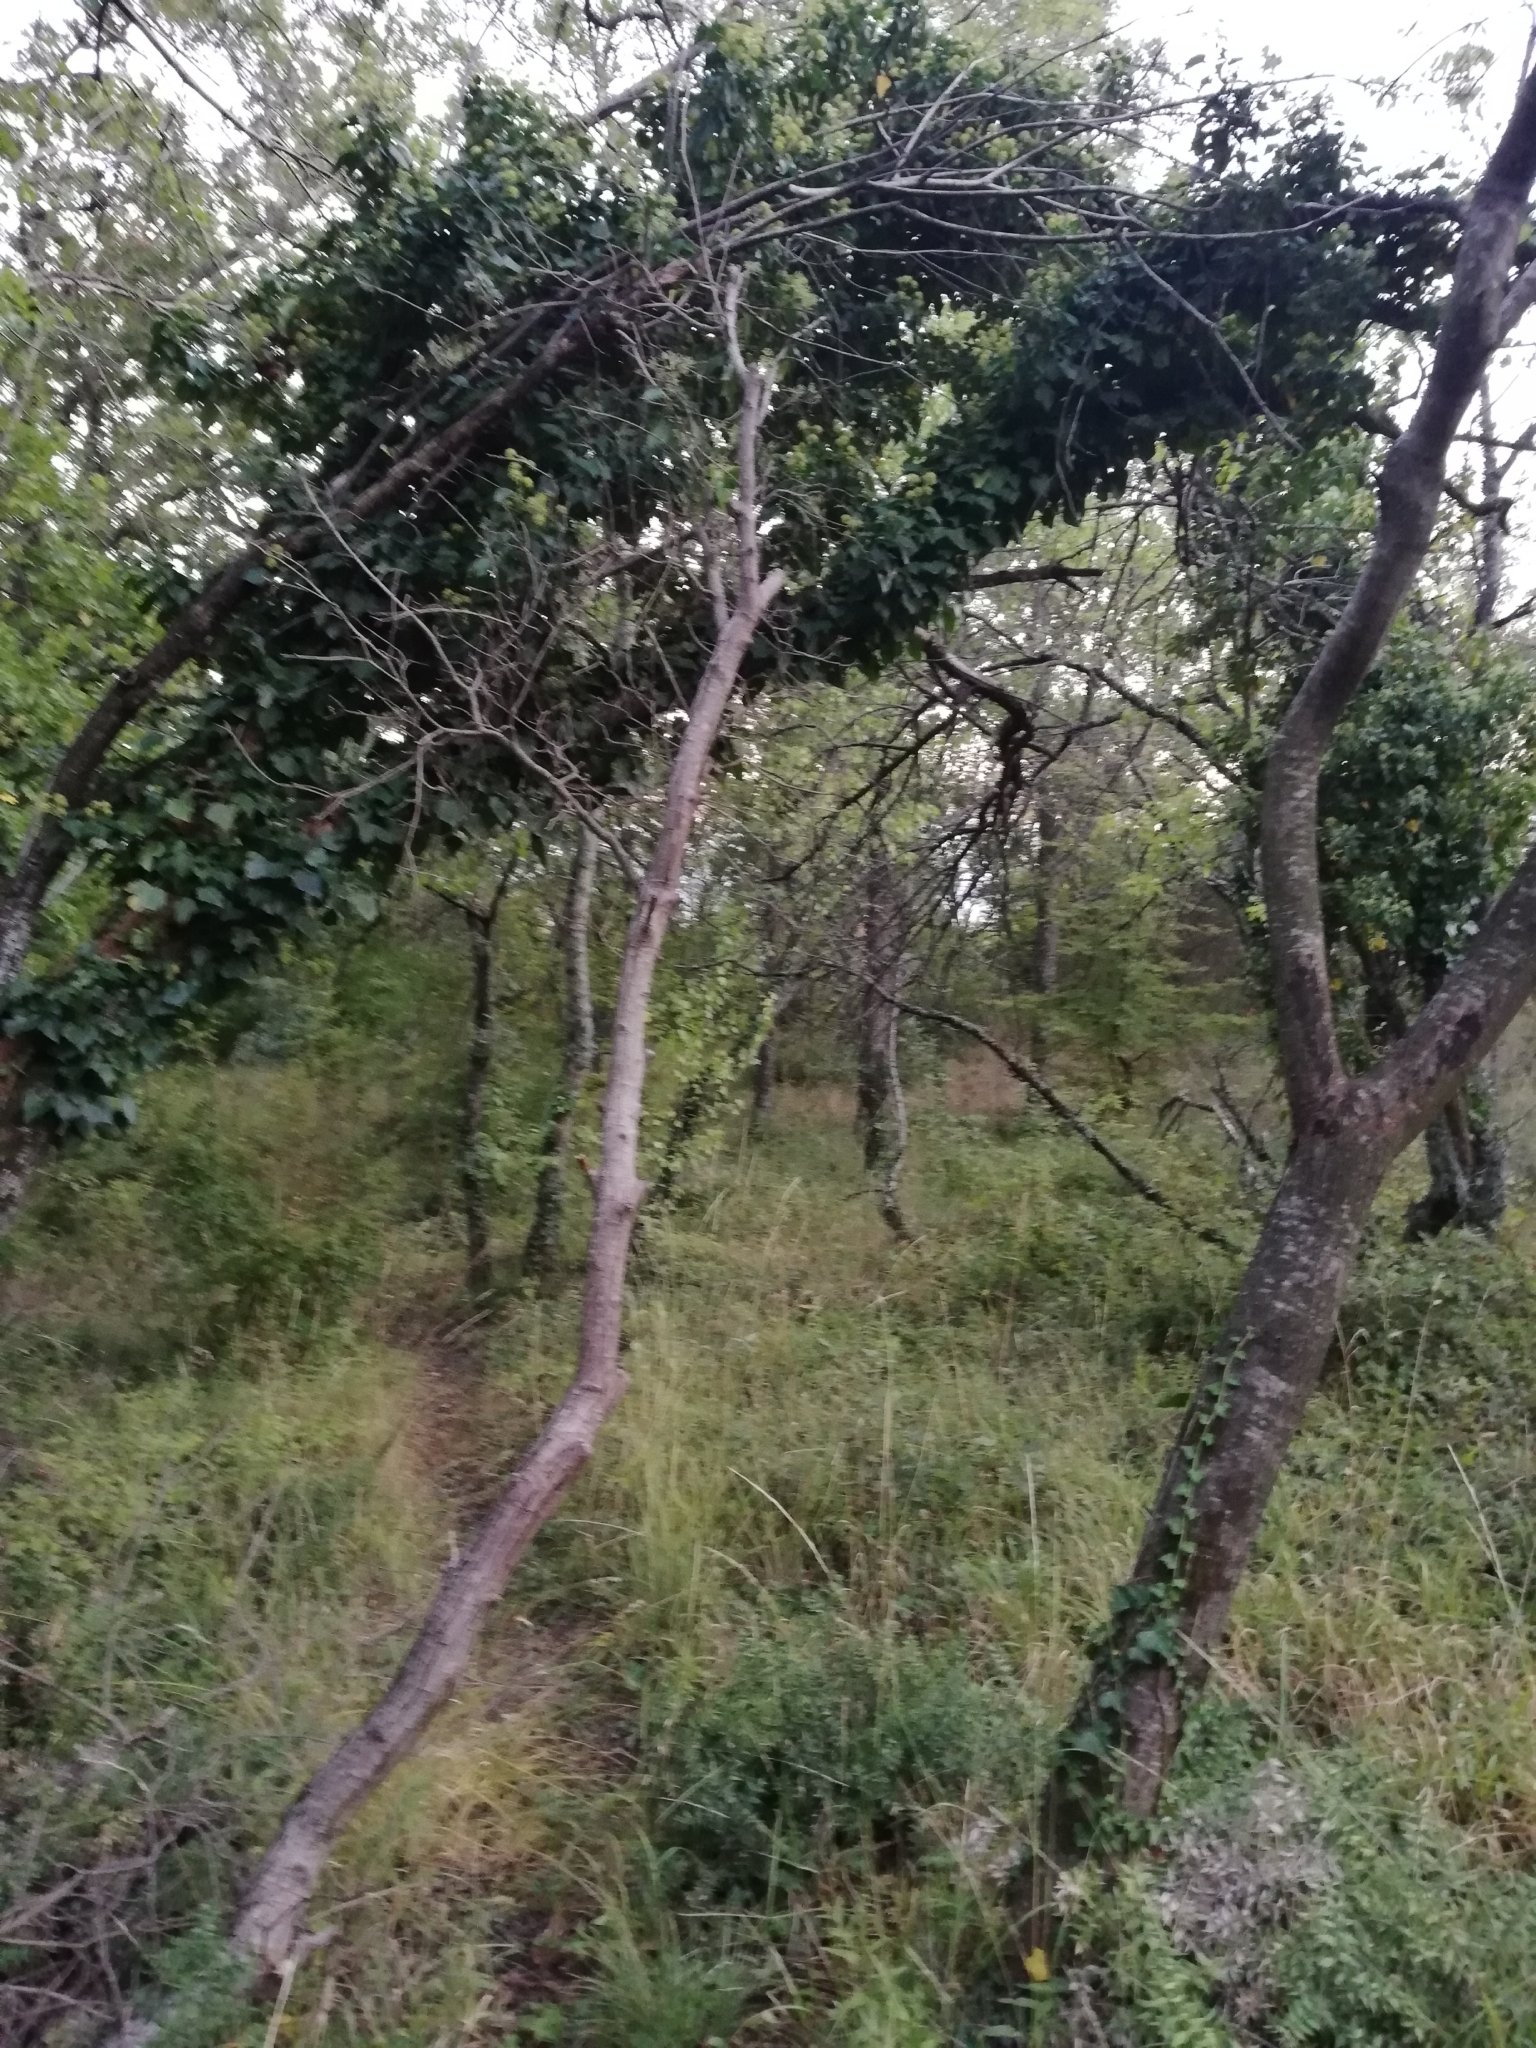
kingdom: Plantae
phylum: Tracheophyta
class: Magnoliopsida
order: Apiales
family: Araliaceae
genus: Hedera
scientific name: Hedera helix
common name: Ivy
